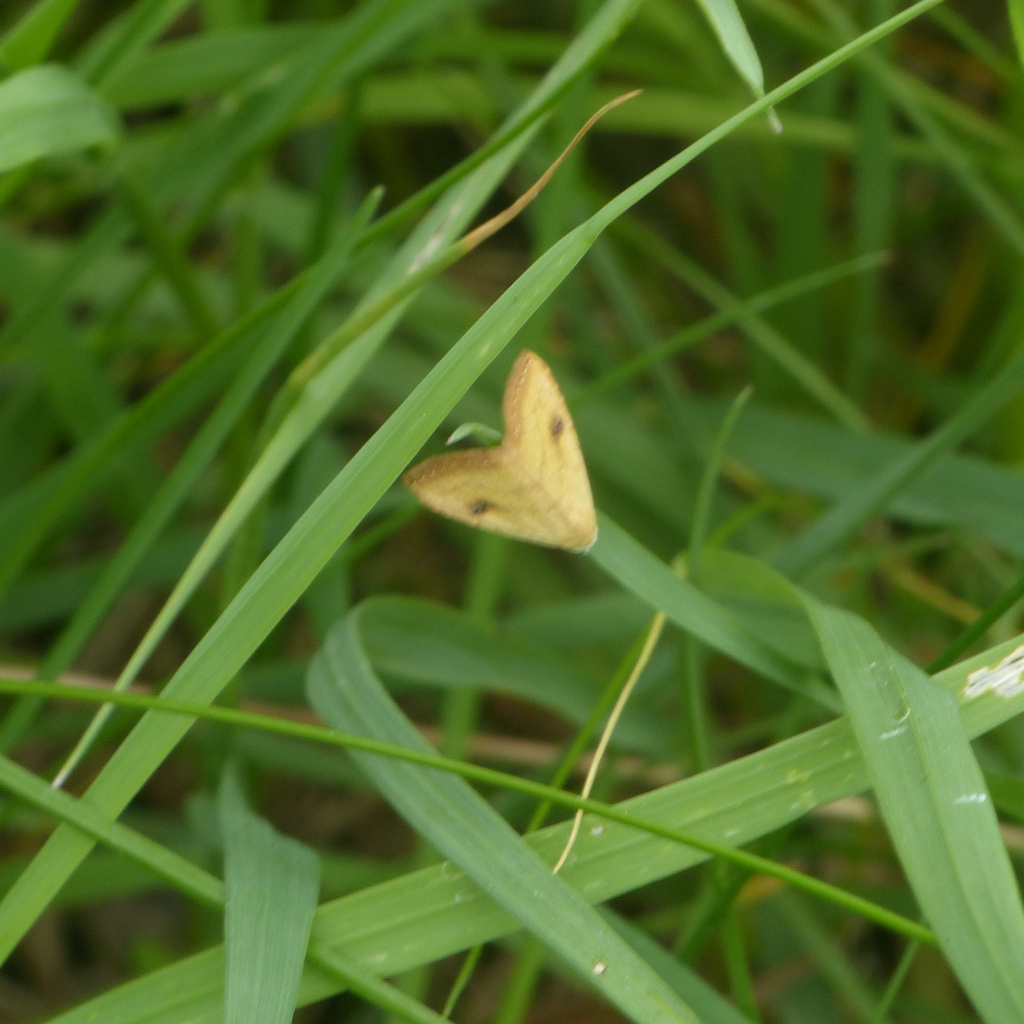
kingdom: Animalia
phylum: Arthropoda
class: Insecta
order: Lepidoptera
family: Erebidae
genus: Rivula
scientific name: Rivula sericealis
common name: Straw dot
